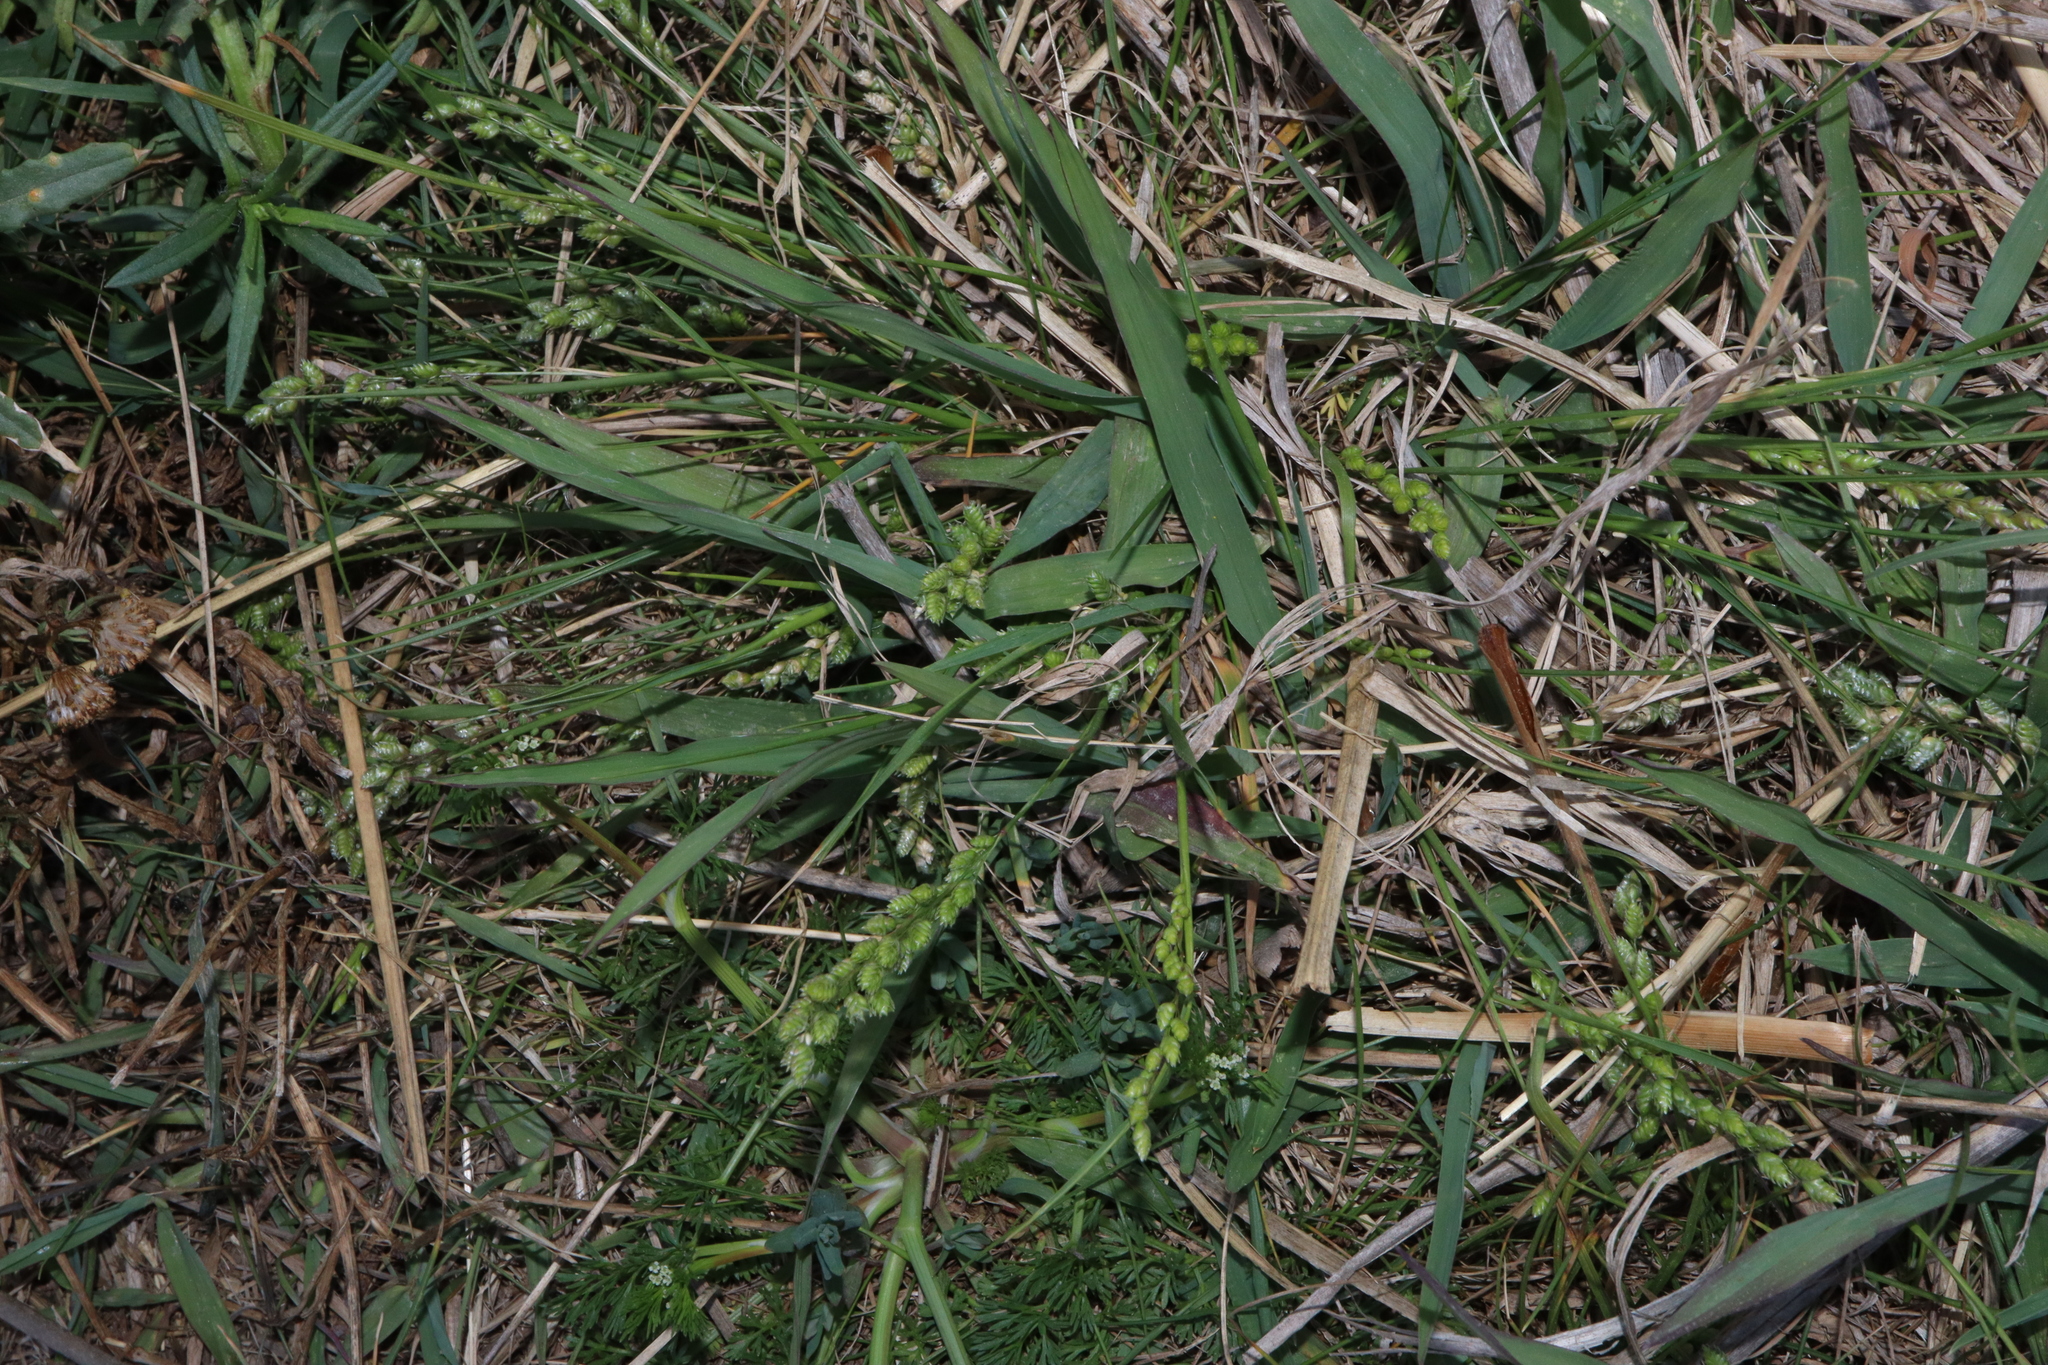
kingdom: Plantae
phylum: Tracheophyta
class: Liliopsida
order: Poales
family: Poaceae
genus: Chascolytrum
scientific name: Chascolytrum subaristatum
